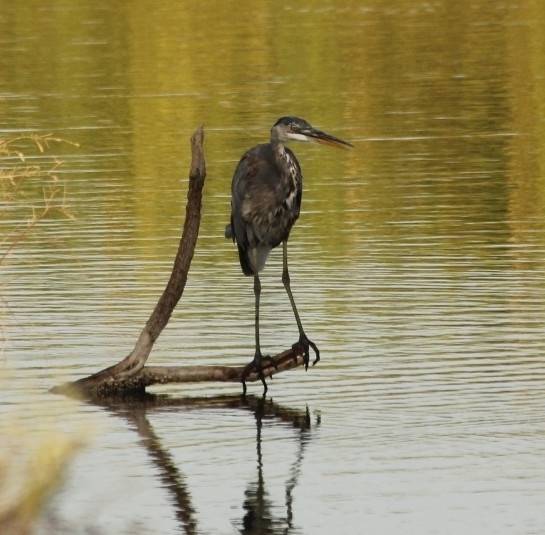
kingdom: Animalia
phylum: Chordata
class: Aves
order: Pelecaniformes
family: Ardeidae
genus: Ardea
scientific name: Ardea herodias
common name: Great blue heron
